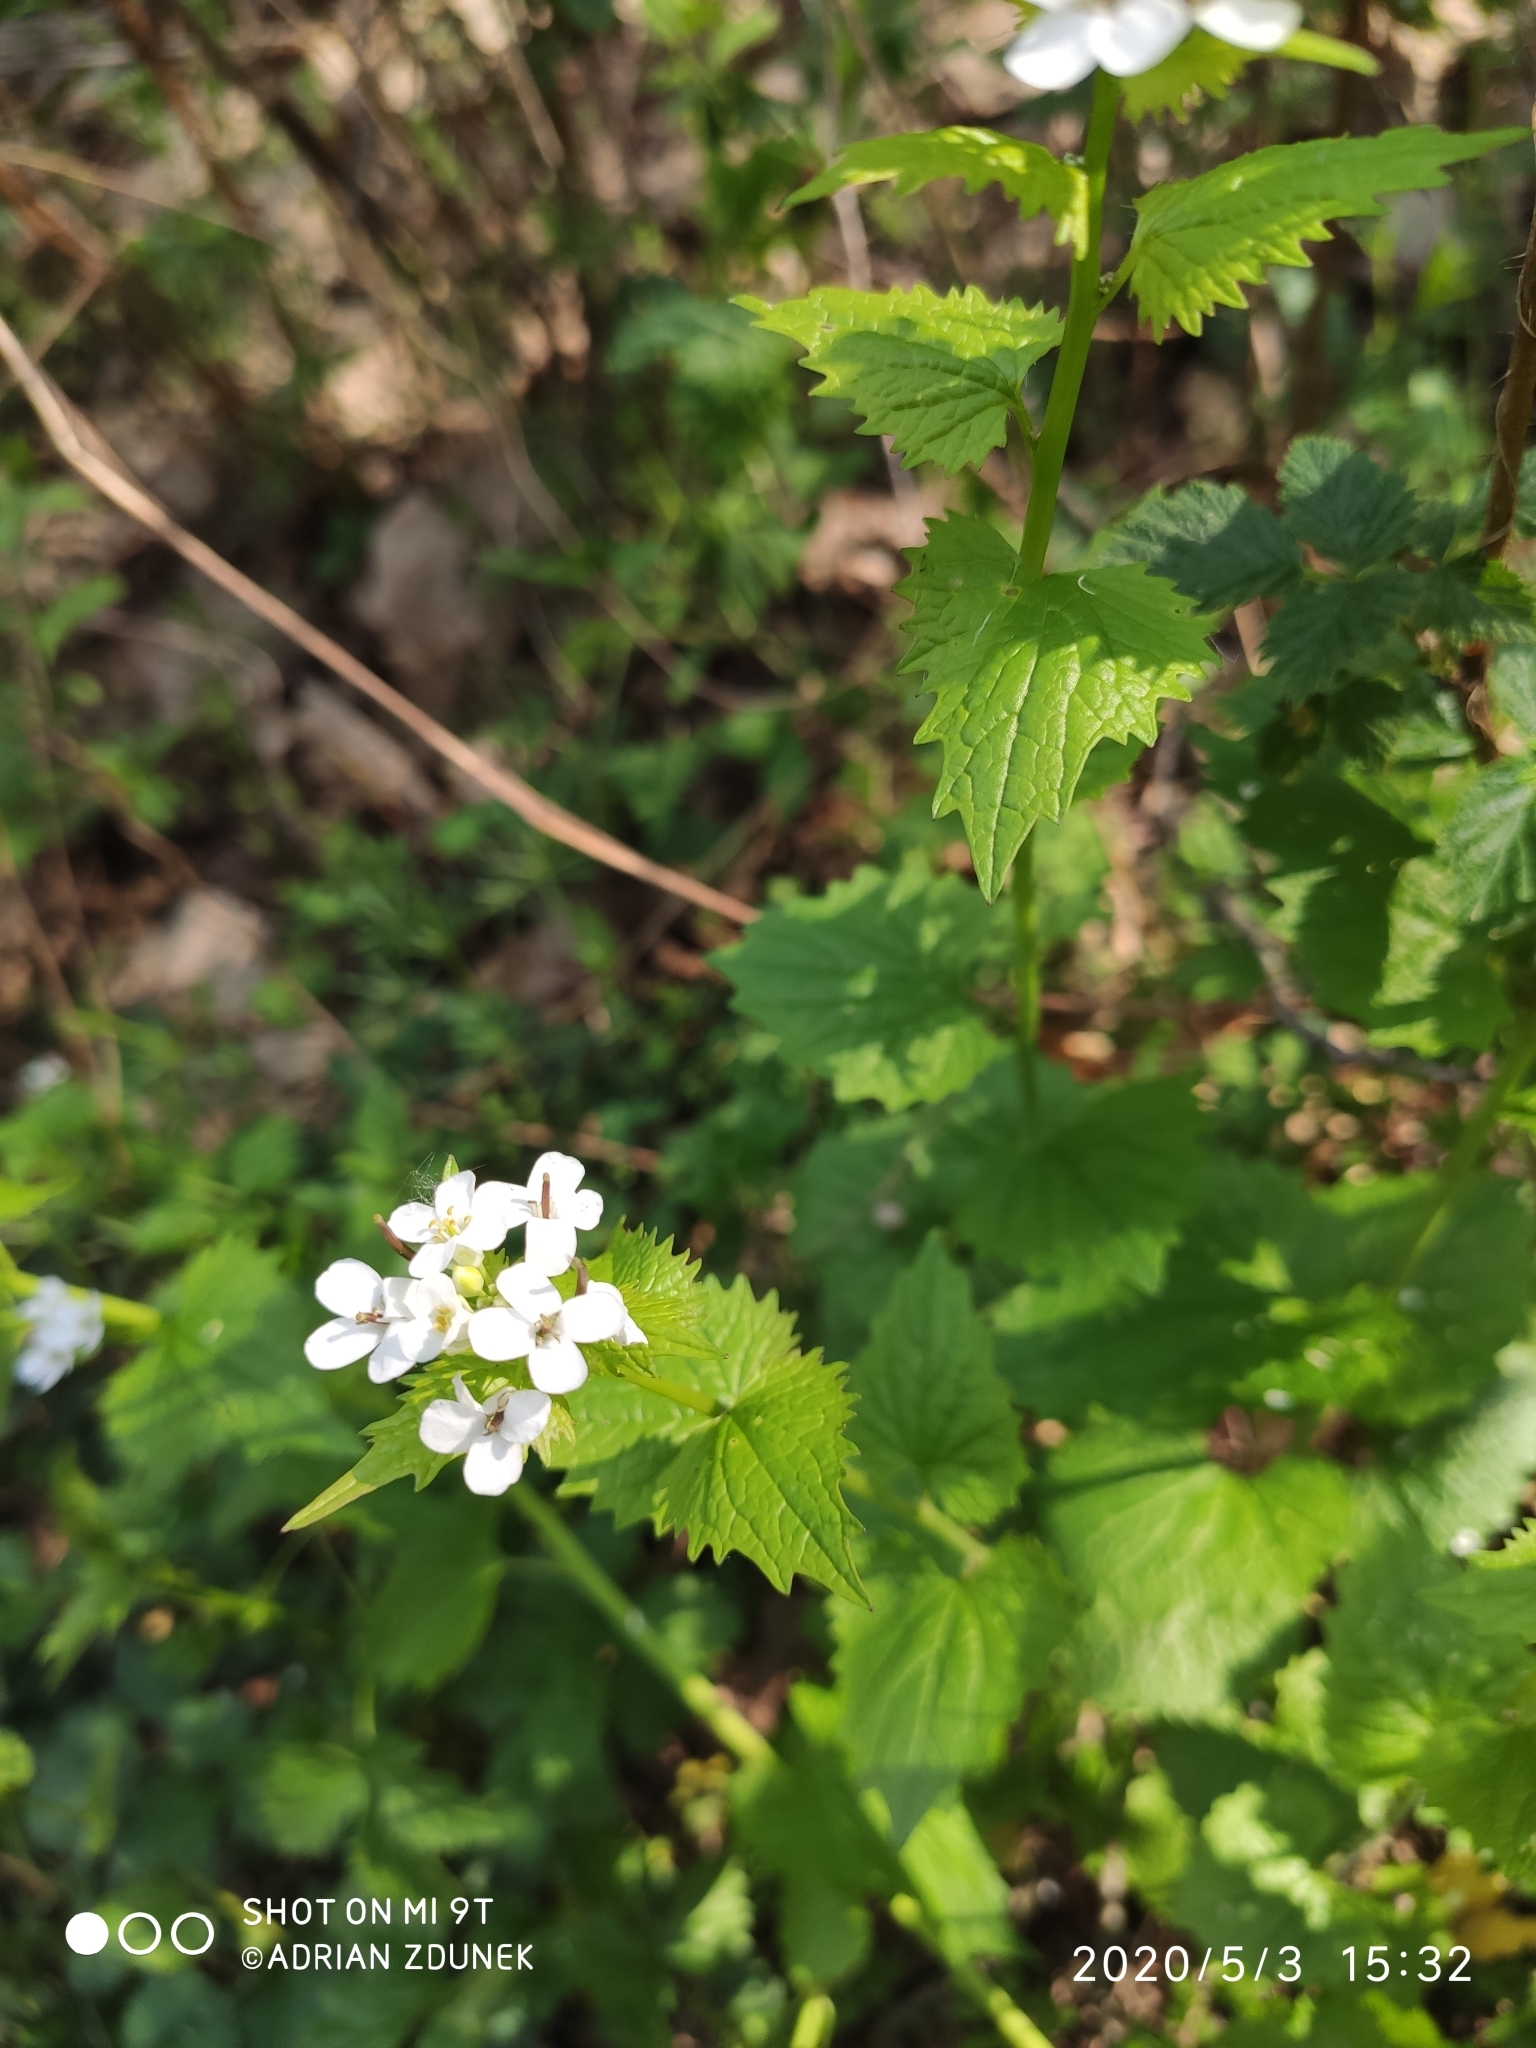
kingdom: Plantae
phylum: Tracheophyta
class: Magnoliopsida
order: Brassicales
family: Brassicaceae
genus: Alliaria
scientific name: Alliaria petiolata
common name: Garlic mustard
